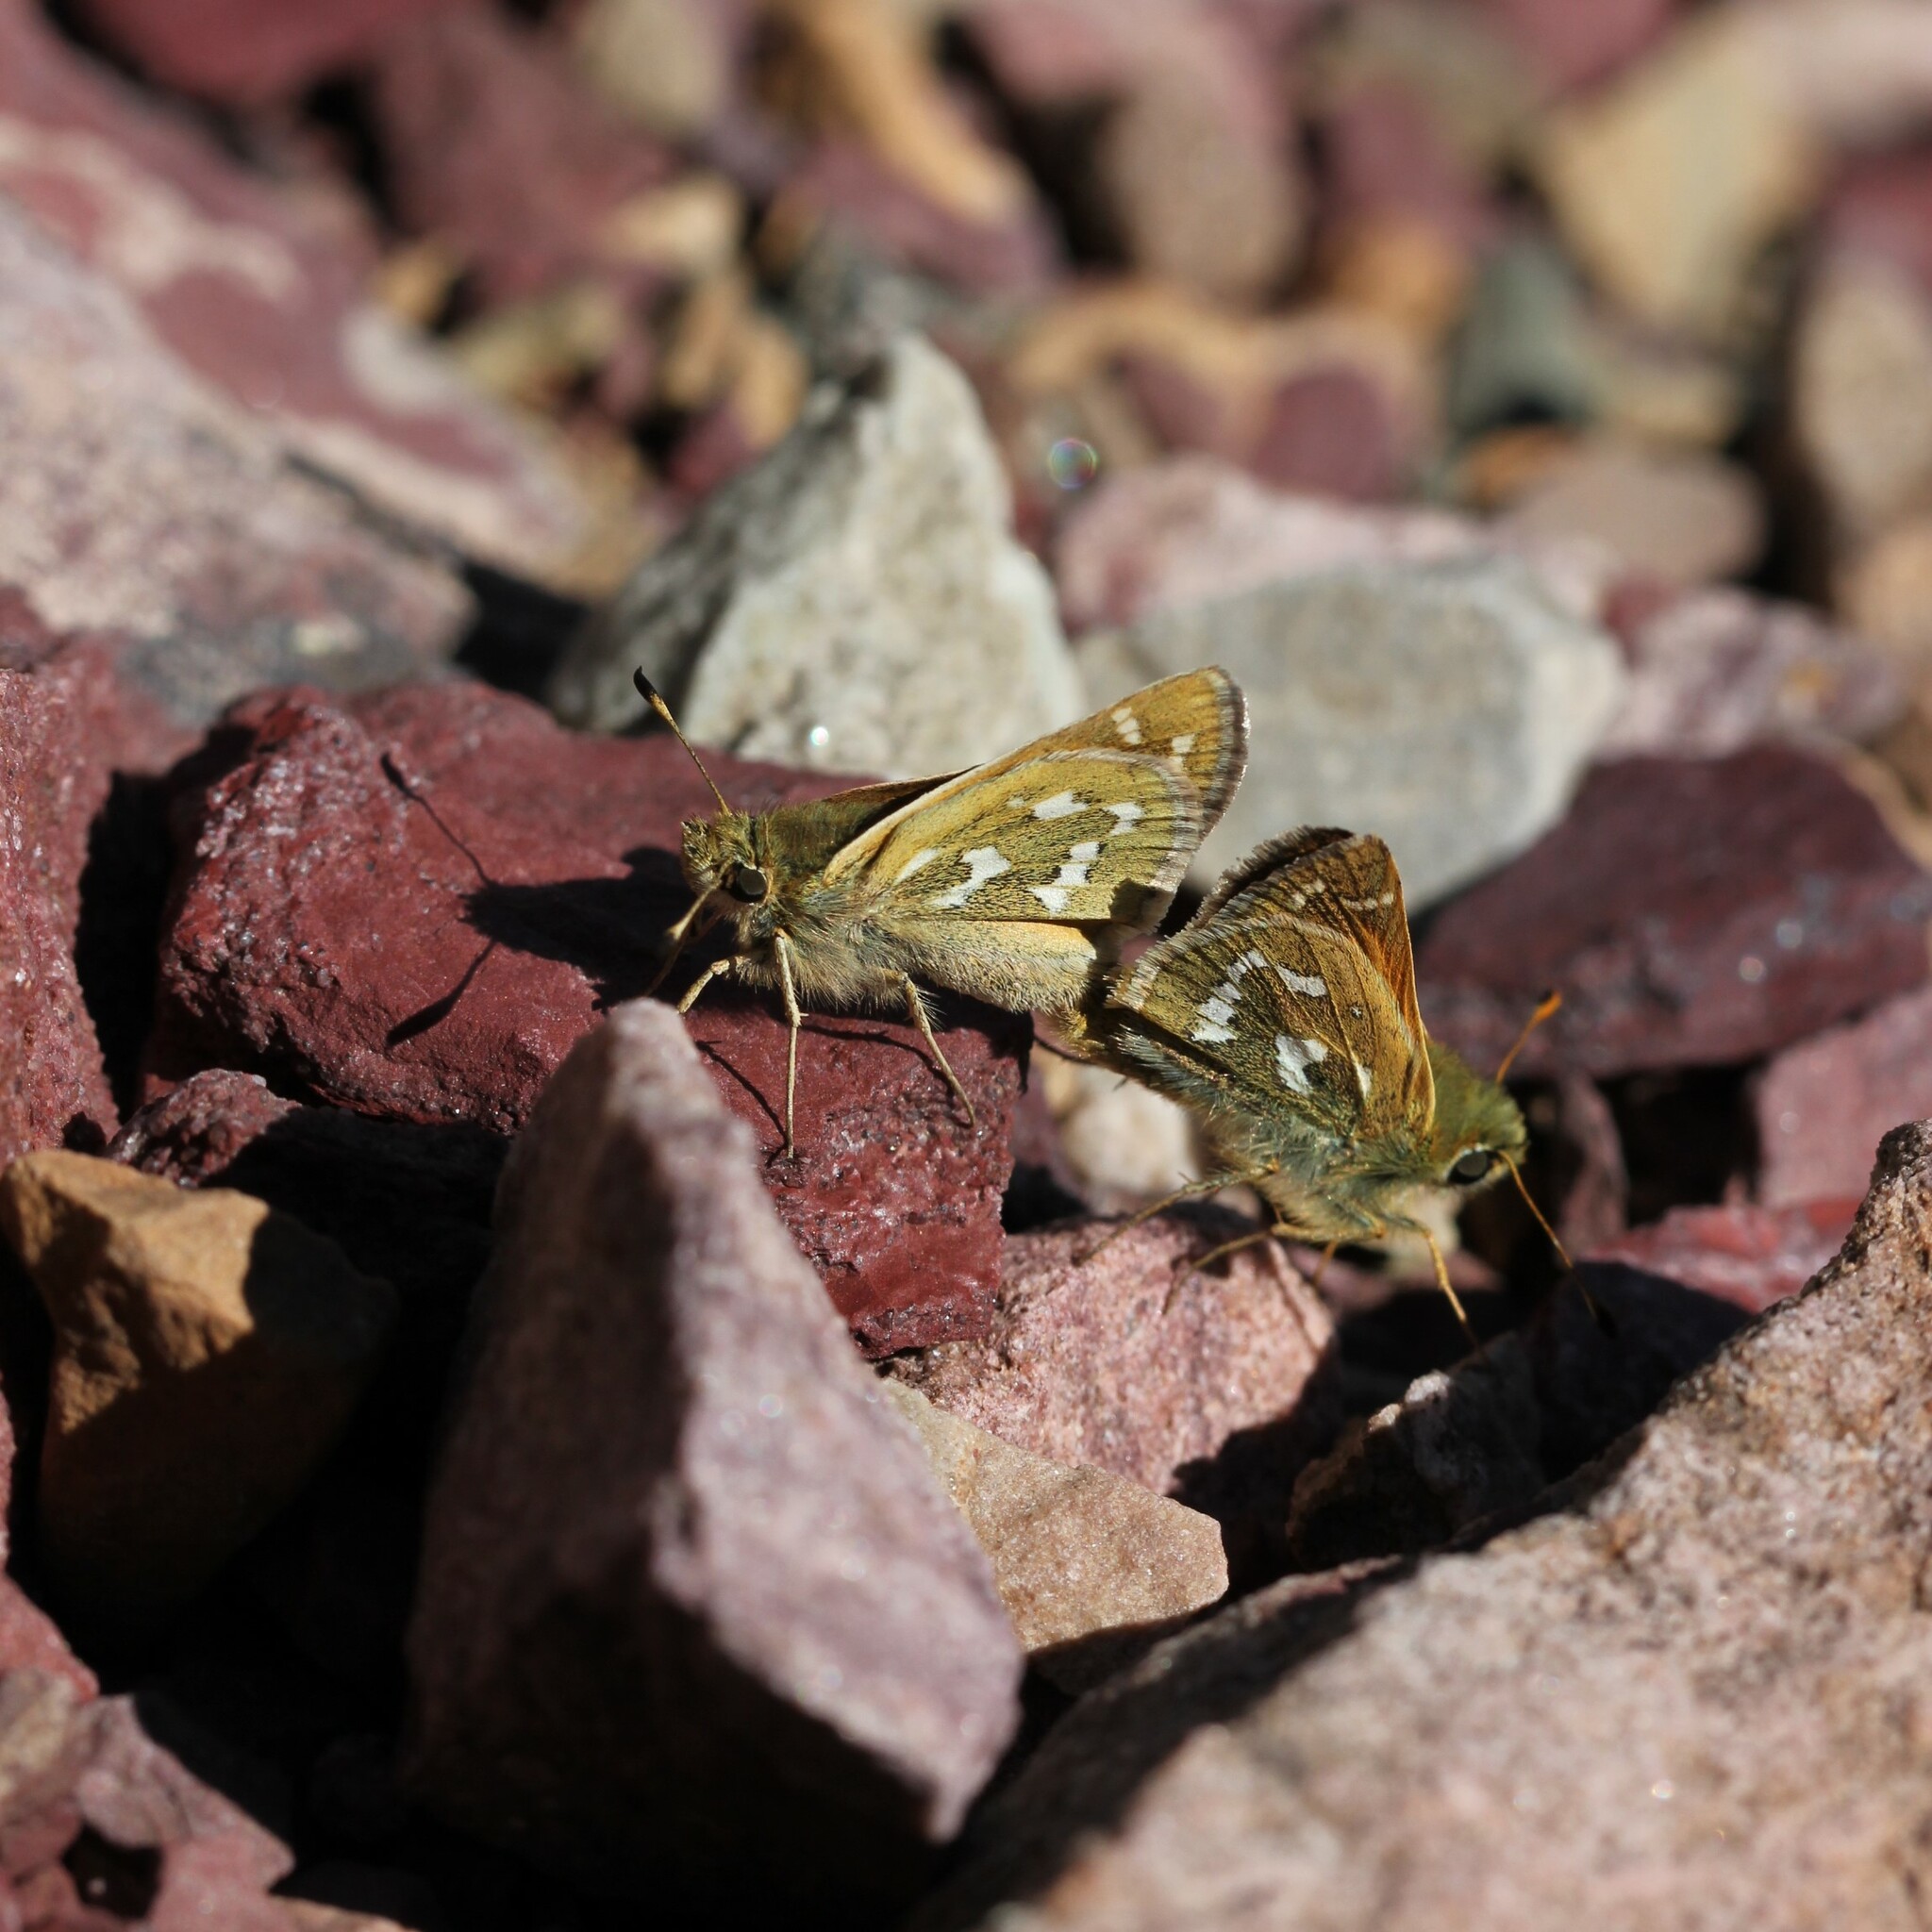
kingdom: Animalia
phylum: Arthropoda
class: Insecta
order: Lepidoptera
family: Hesperiidae
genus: Hesperia
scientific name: Hesperia comma
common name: Common branded skipper
